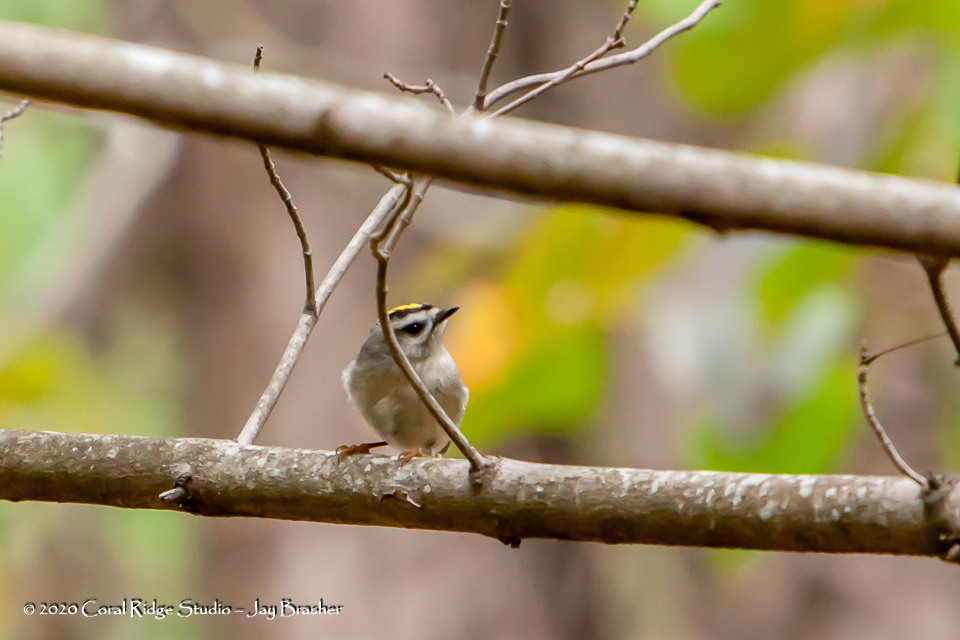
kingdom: Animalia
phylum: Chordata
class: Aves
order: Passeriformes
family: Regulidae
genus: Regulus
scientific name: Regulus satrapa
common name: Golden-crowned kinglet
